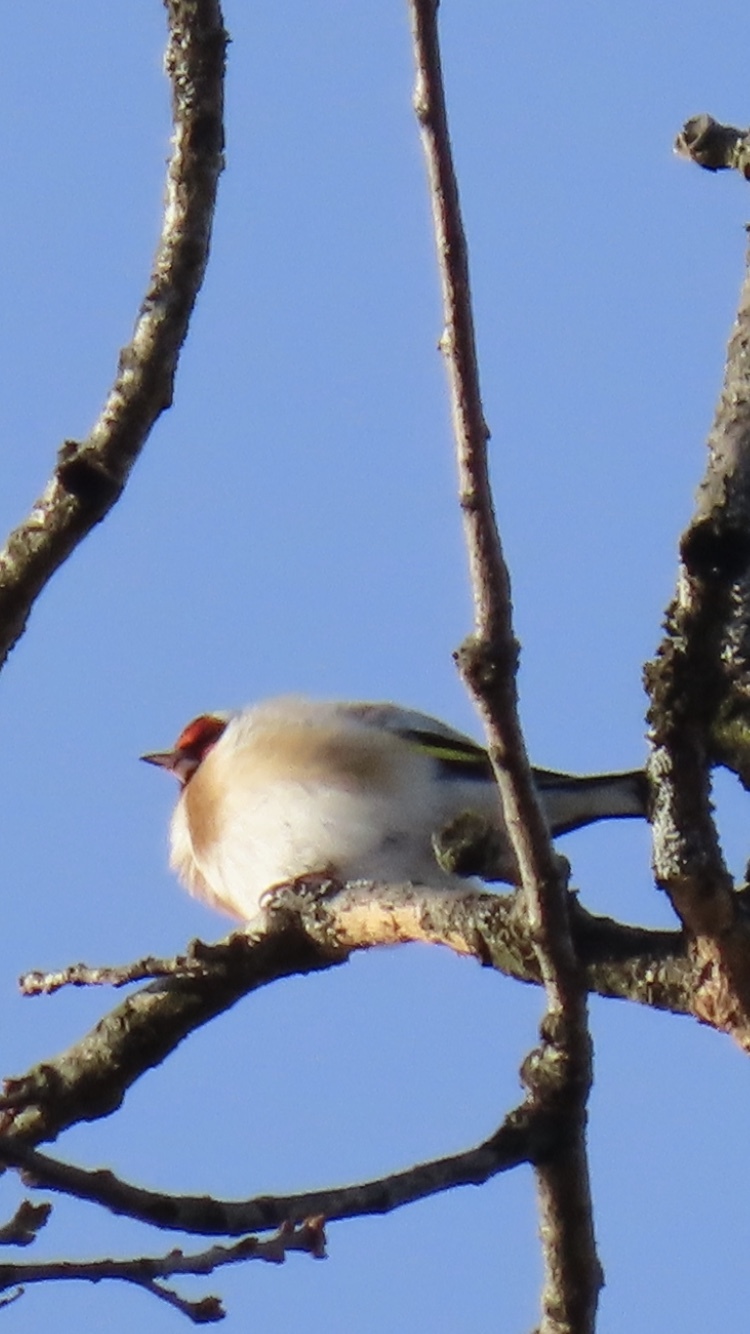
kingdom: Animalia
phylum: Chordata
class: Aves
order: Passeriformes
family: Fringillidae
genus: Carduelis
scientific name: Carduelis carduelis
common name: European goldfinch
